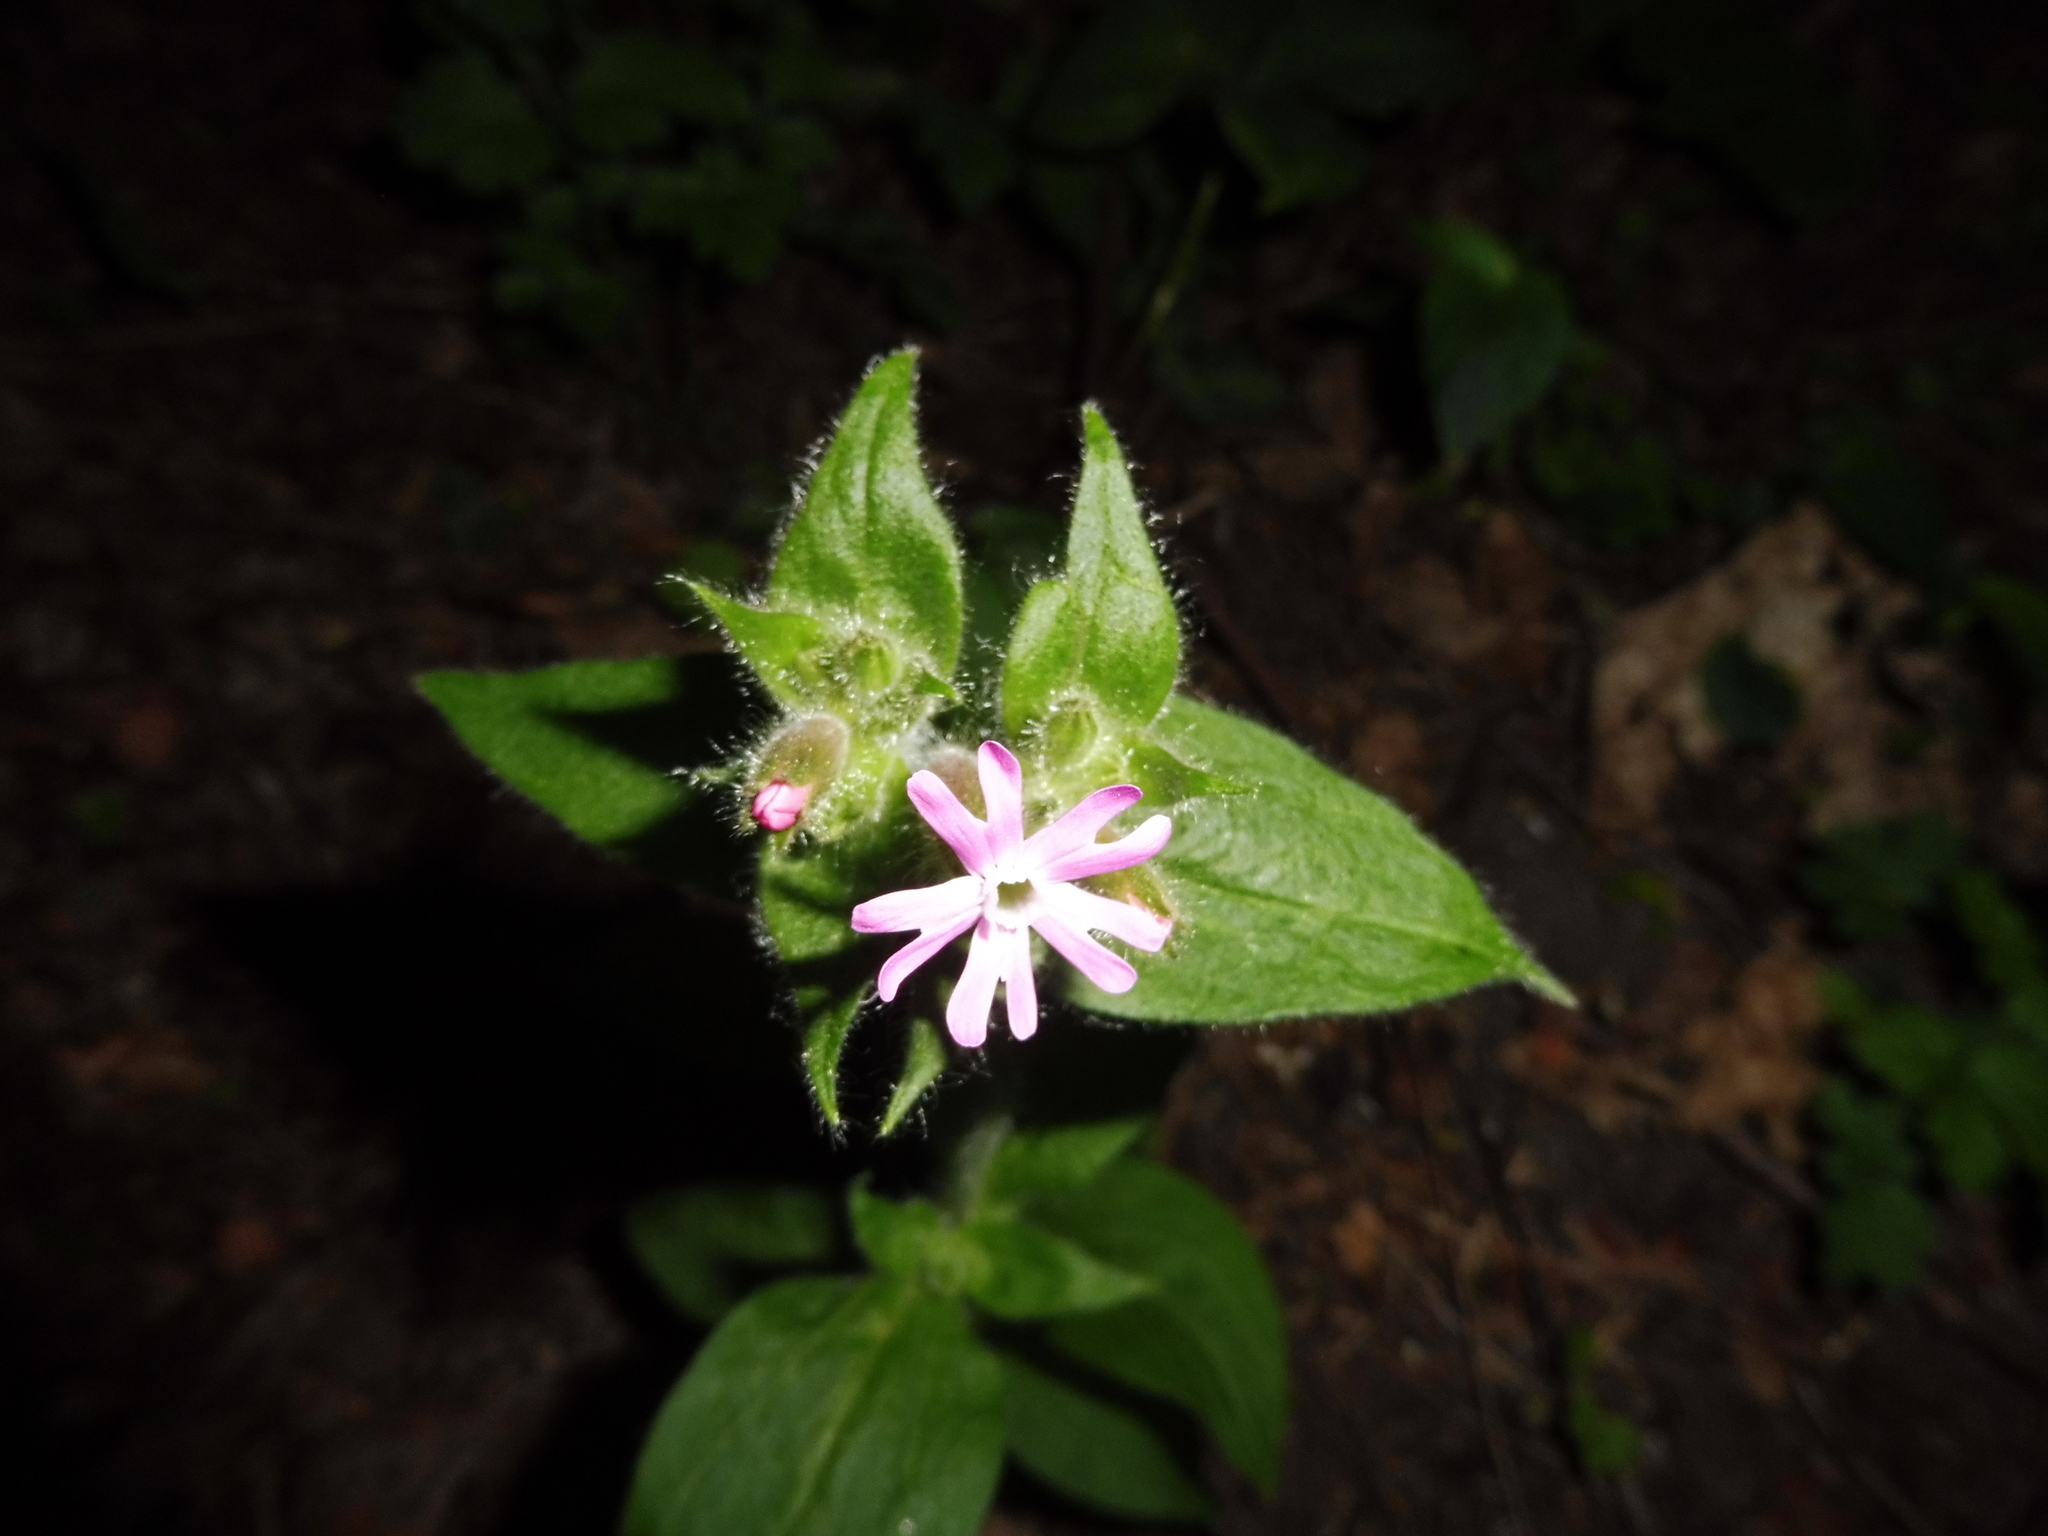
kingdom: Plantae
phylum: Tracheophyta
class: Magnoliopsida
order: Caryophyllales
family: Caryophyllaceae
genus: Silene
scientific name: Silene dioica
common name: Red campion
